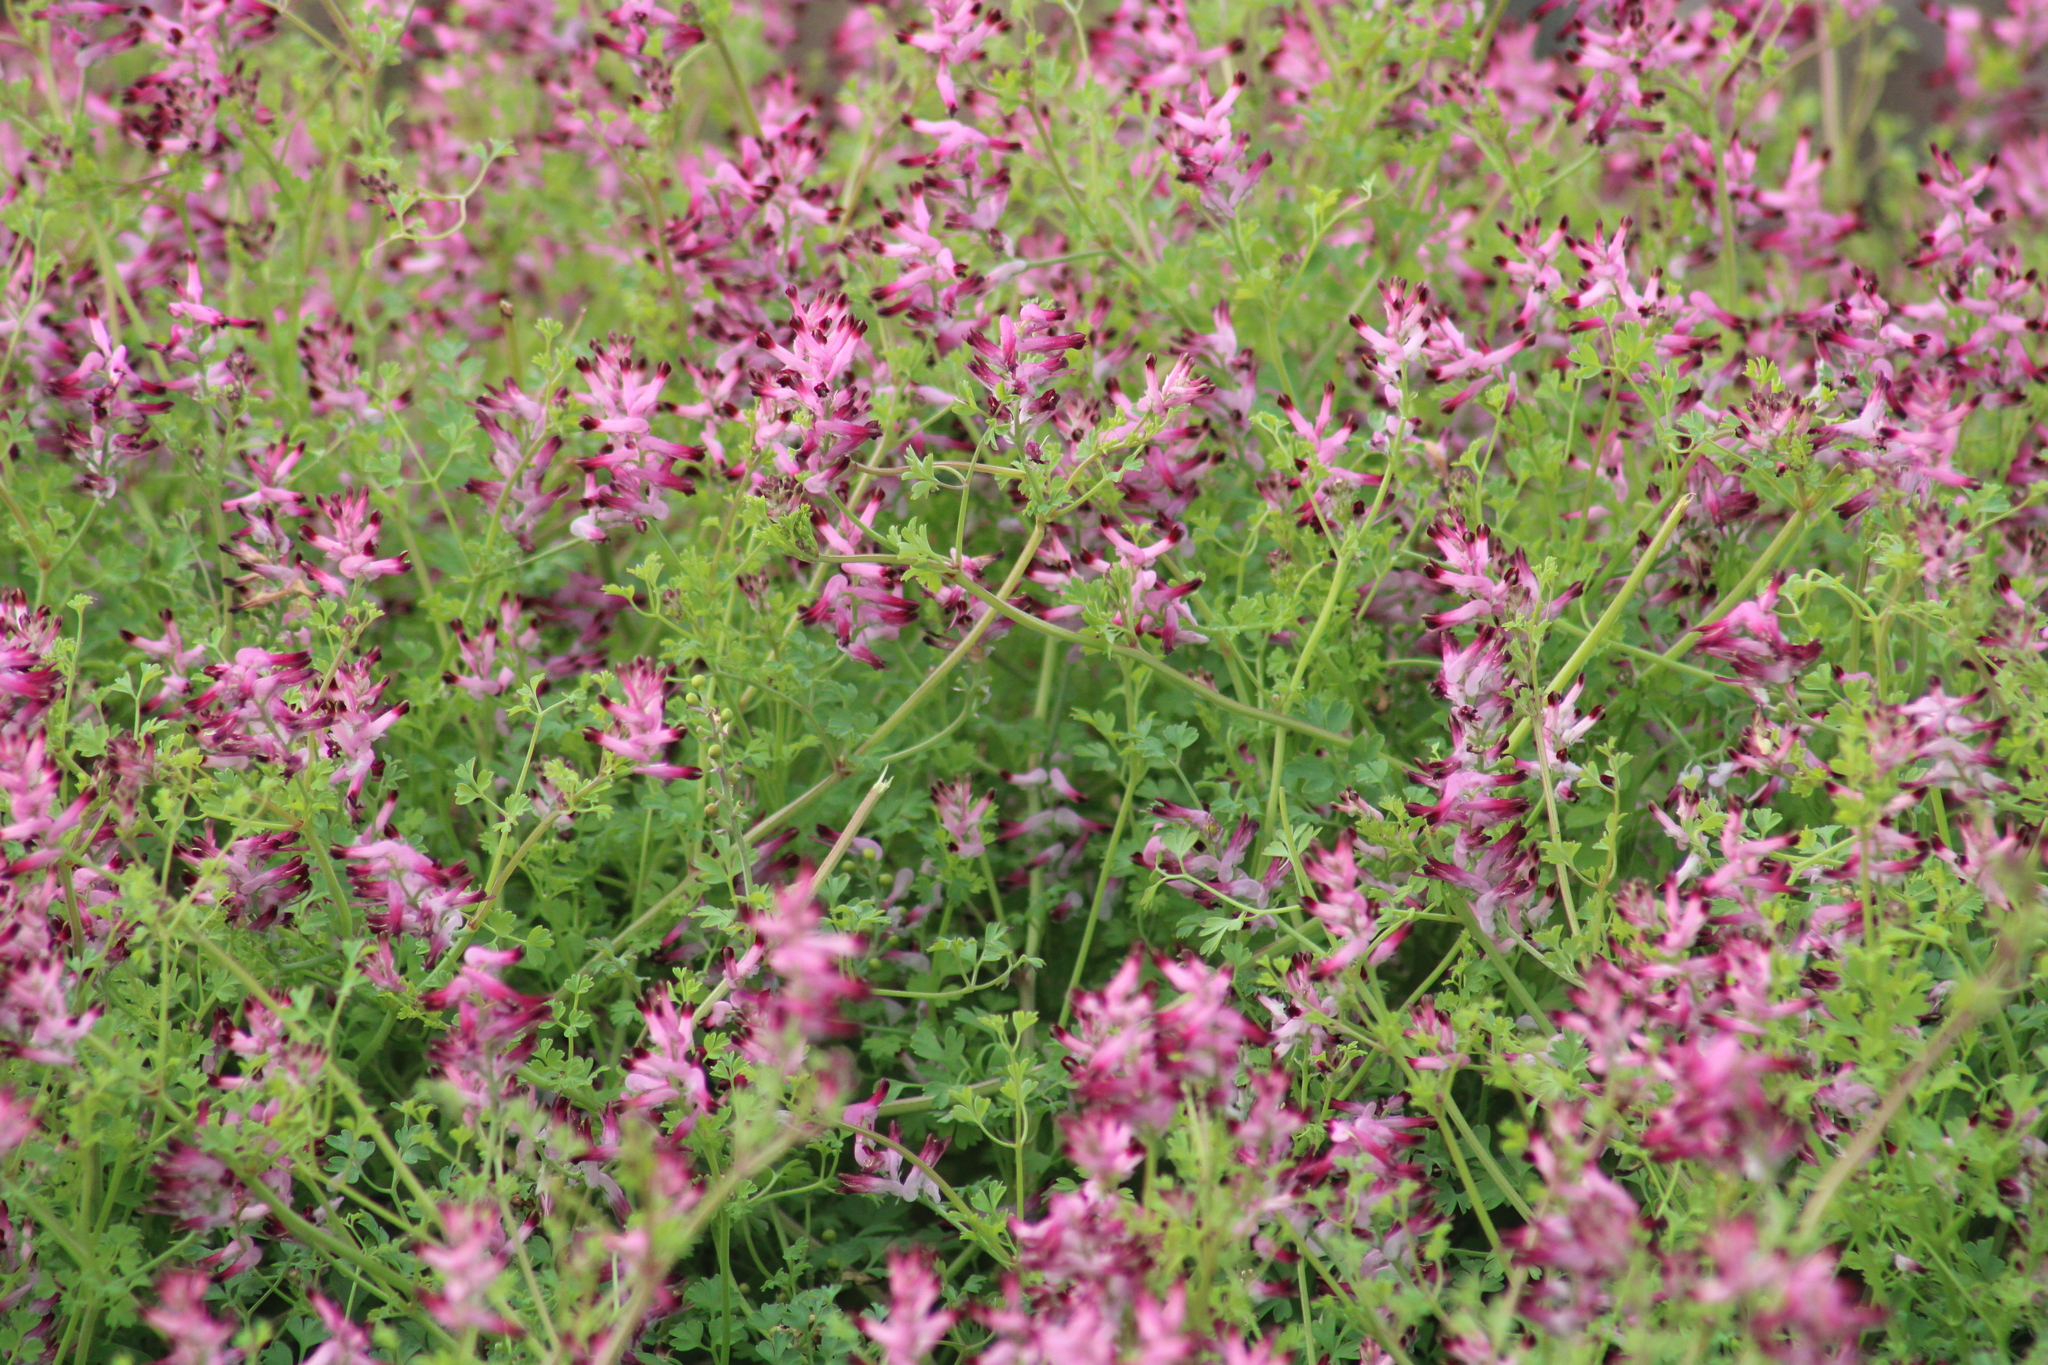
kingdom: Plantae
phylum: Tracheophyta
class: Magnoliopsida
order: Ranunculales
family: Papaveraceae
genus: Fumaria
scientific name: Fumaria muralis
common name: Common ramping-fumitory
